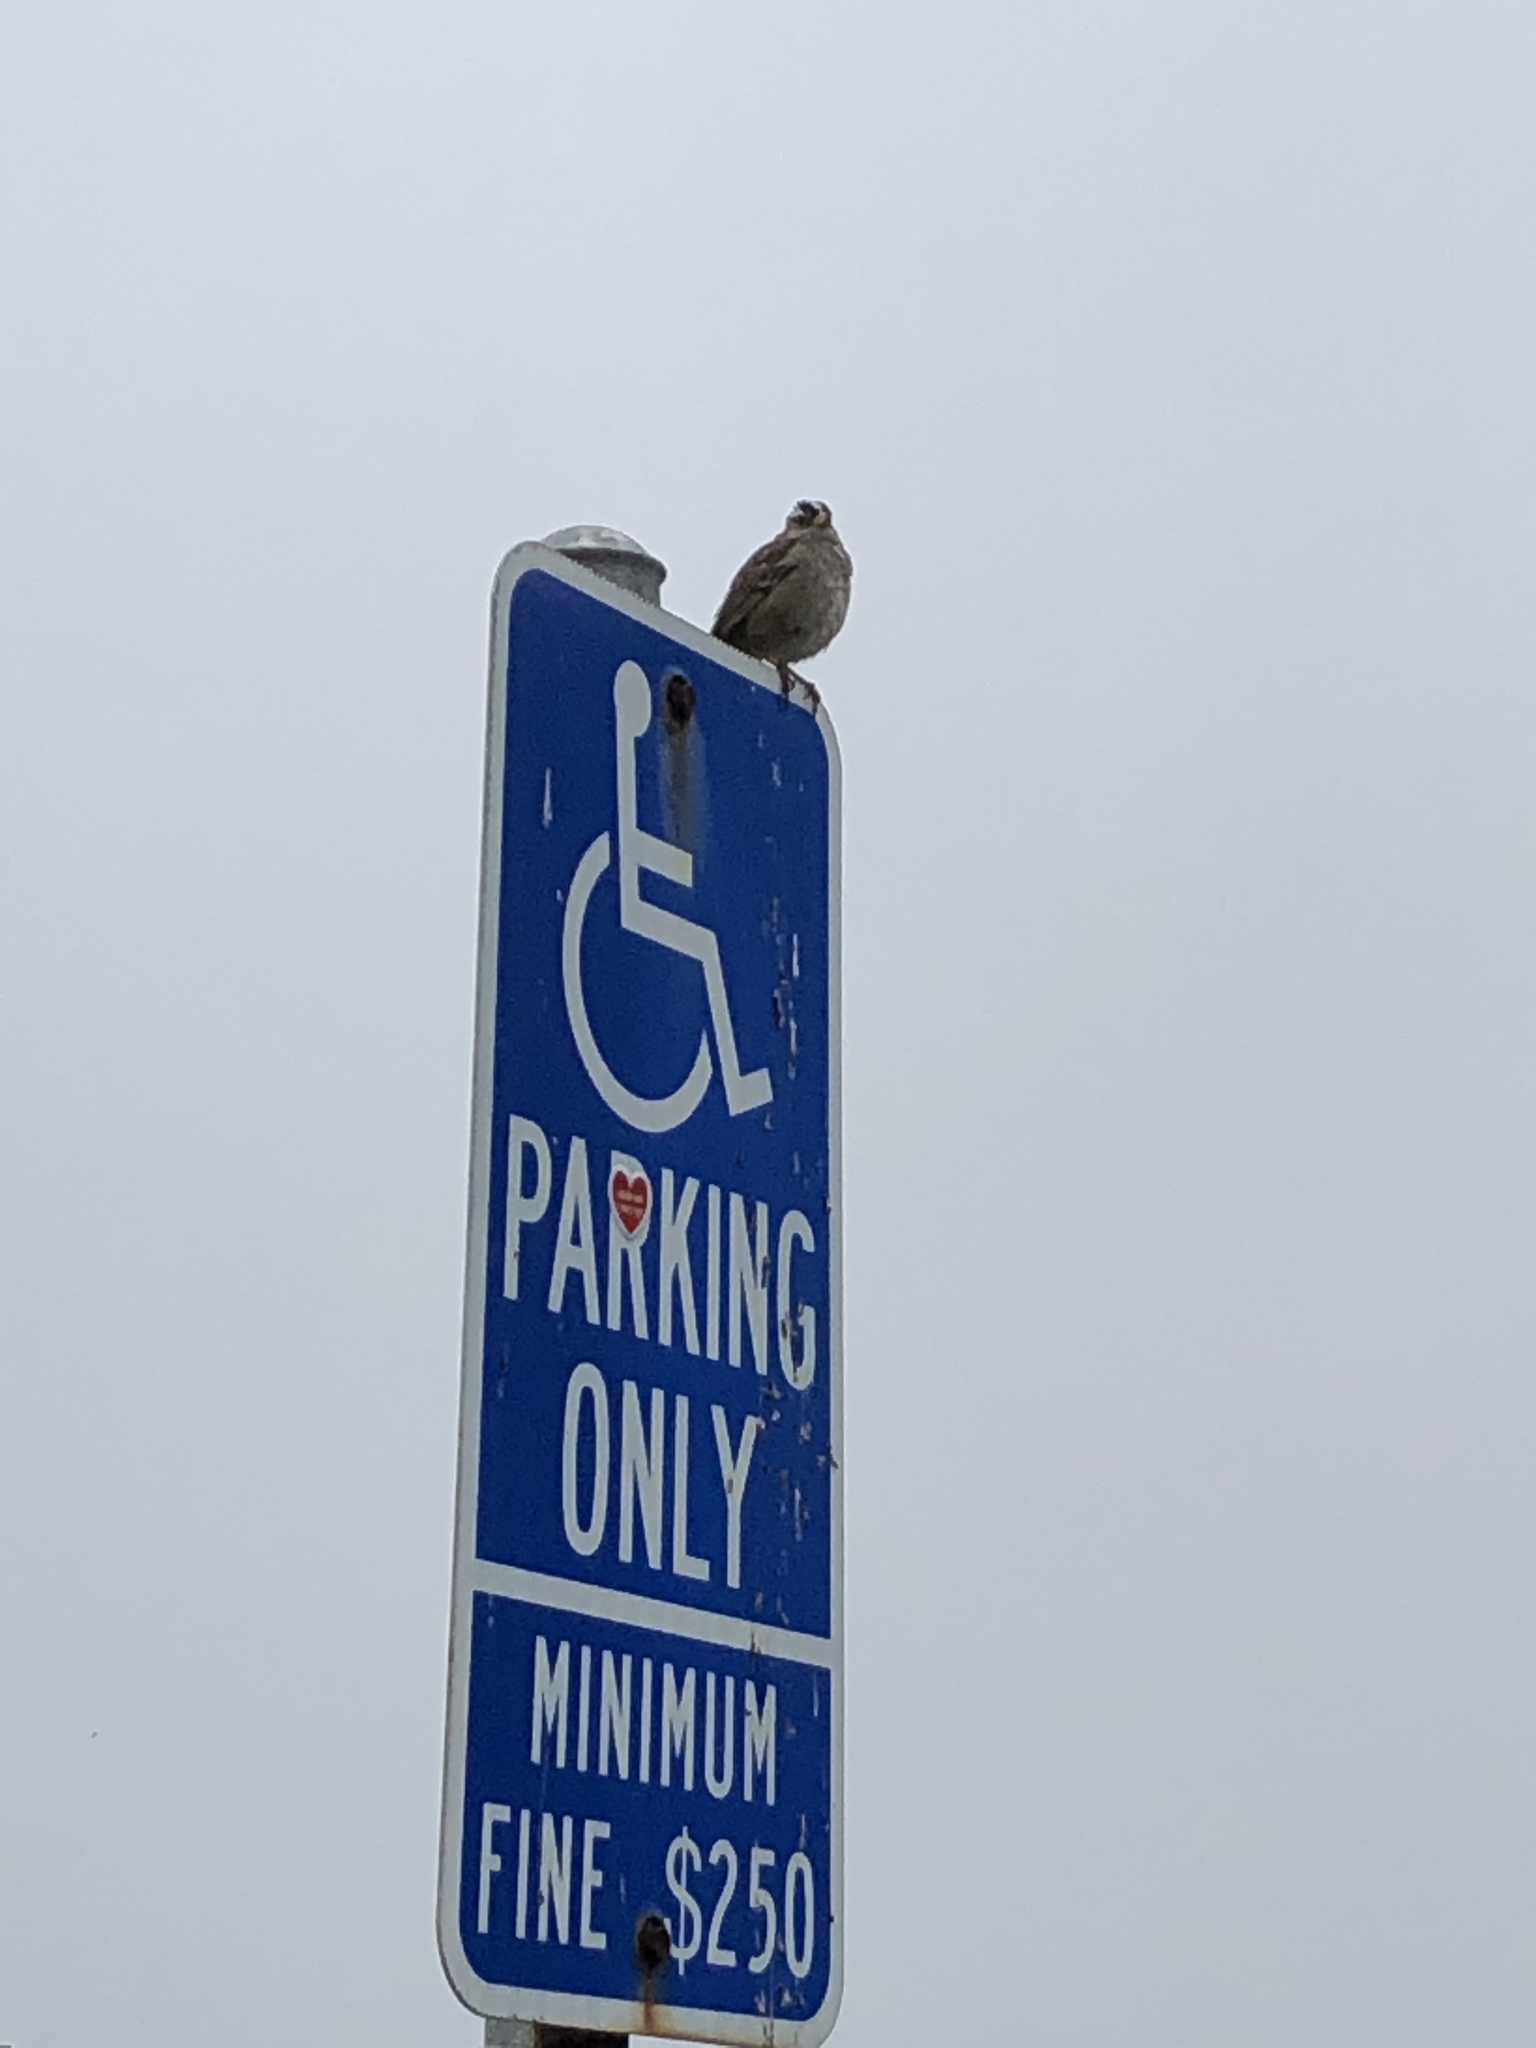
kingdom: Animalia
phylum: Chordata
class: Aves
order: Passeriformes
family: Passerellidae
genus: Zonotrichia
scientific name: Zonotrichia leucophrys
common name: White-crowned sparrow
